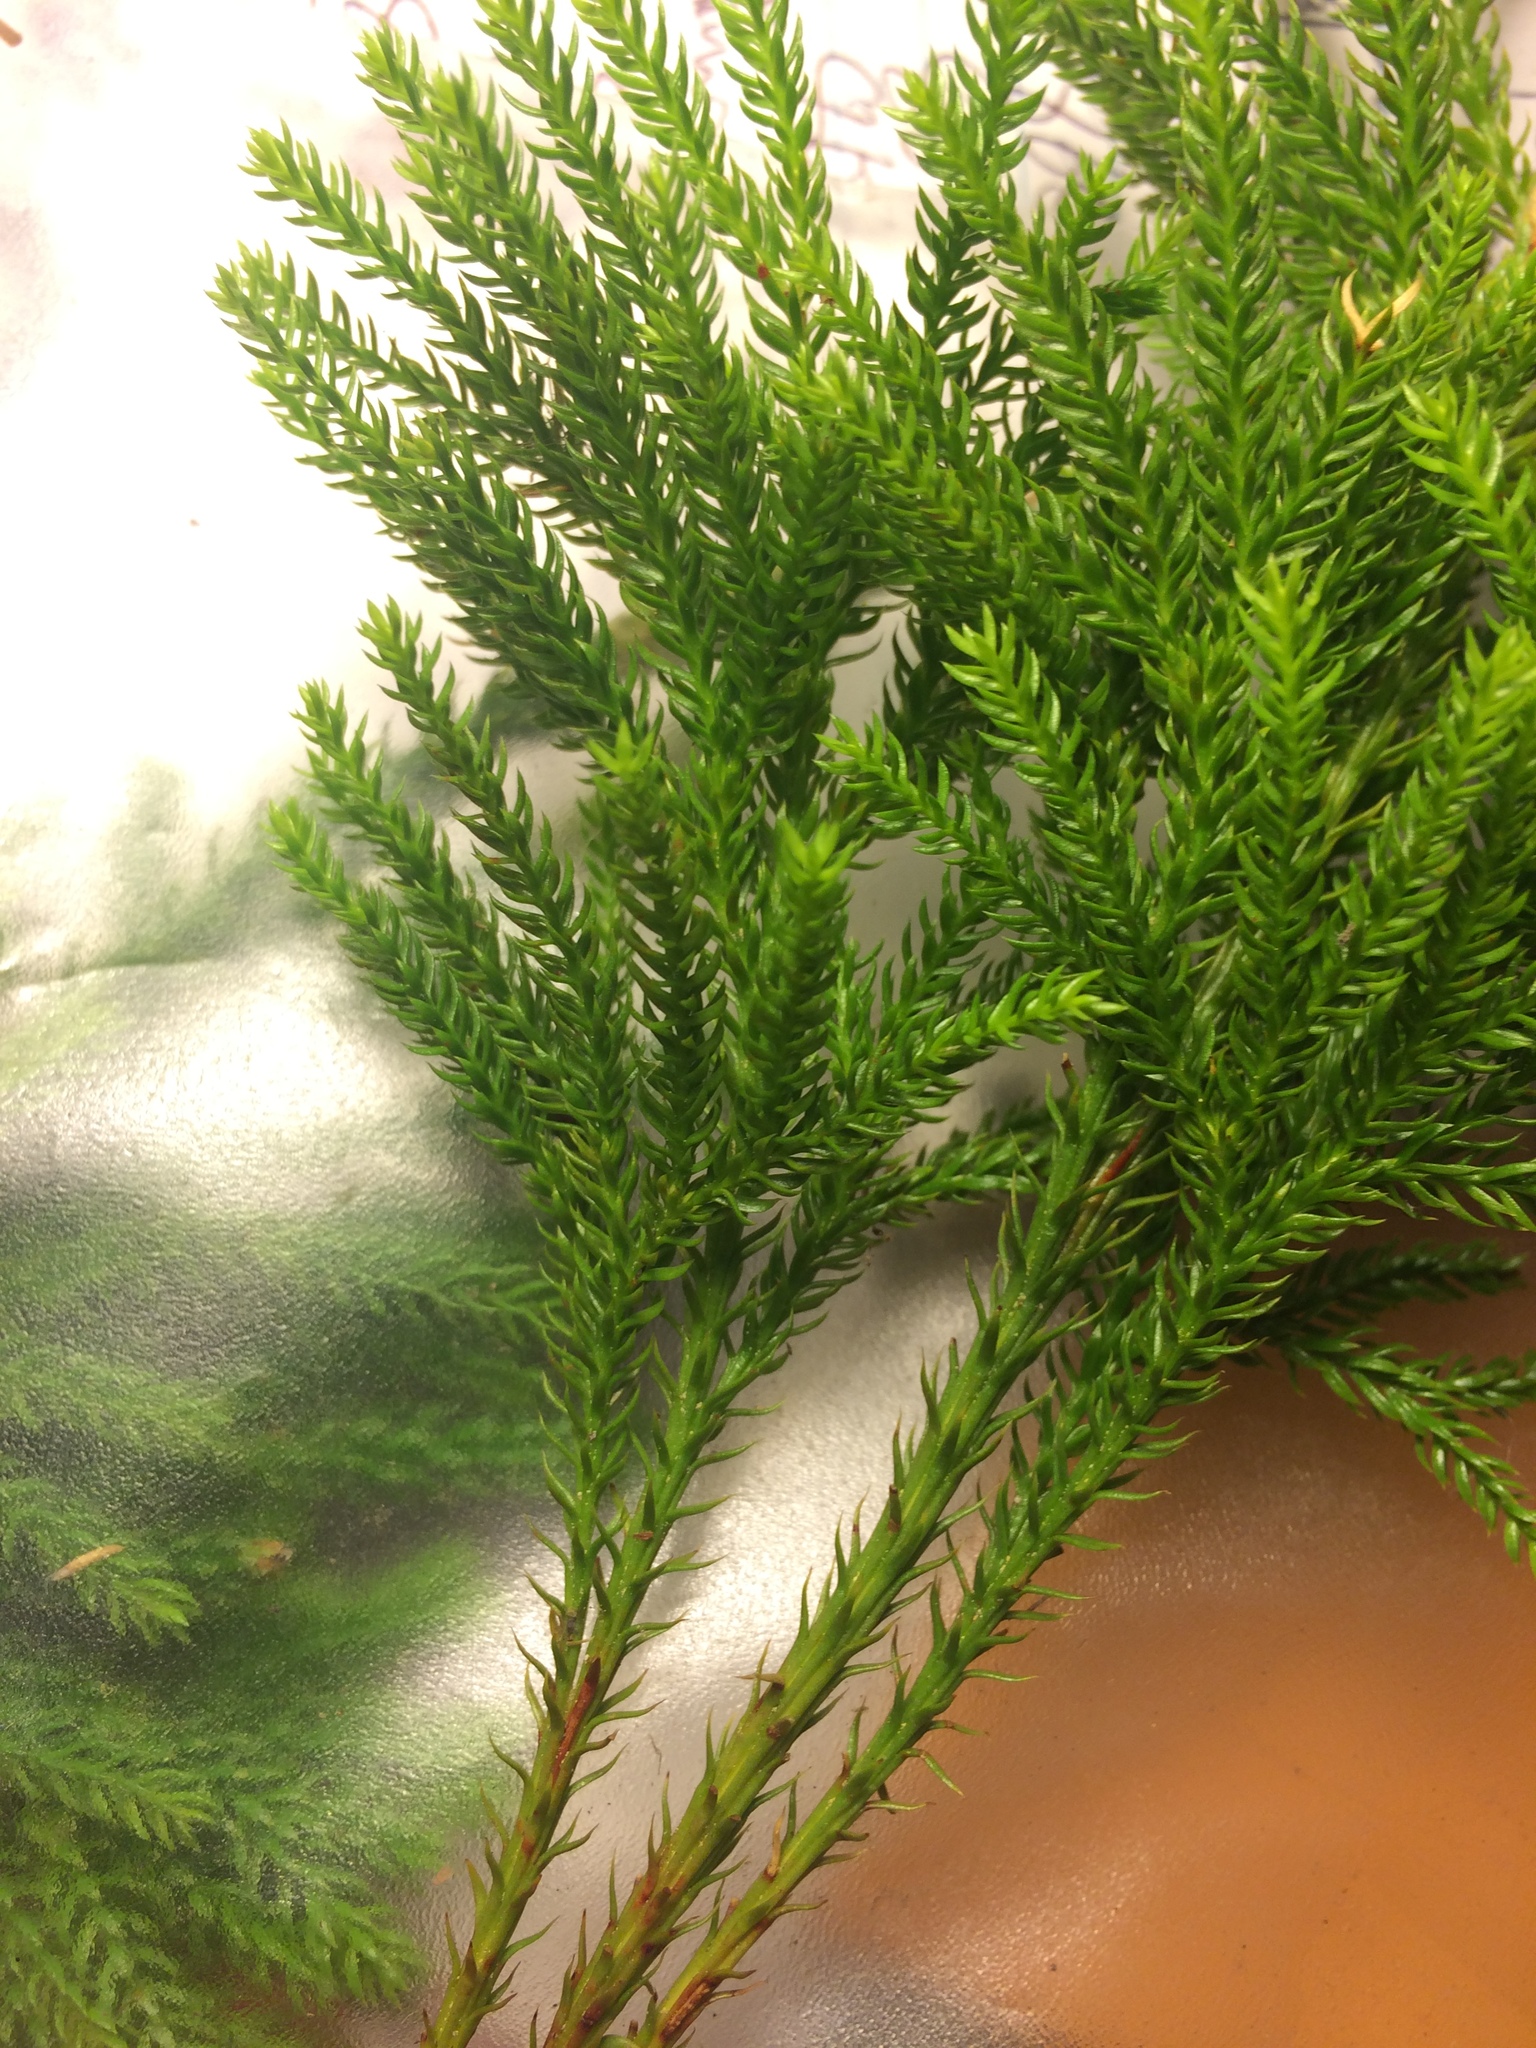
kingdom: Plantae
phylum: Tracheophyta
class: Lycopodiopsida
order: Lycopodiales
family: Lycopodiaceae
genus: Dendrolycopodium
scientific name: Dendrolycopodium dendroideum
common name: Northern tree-clubmoss
